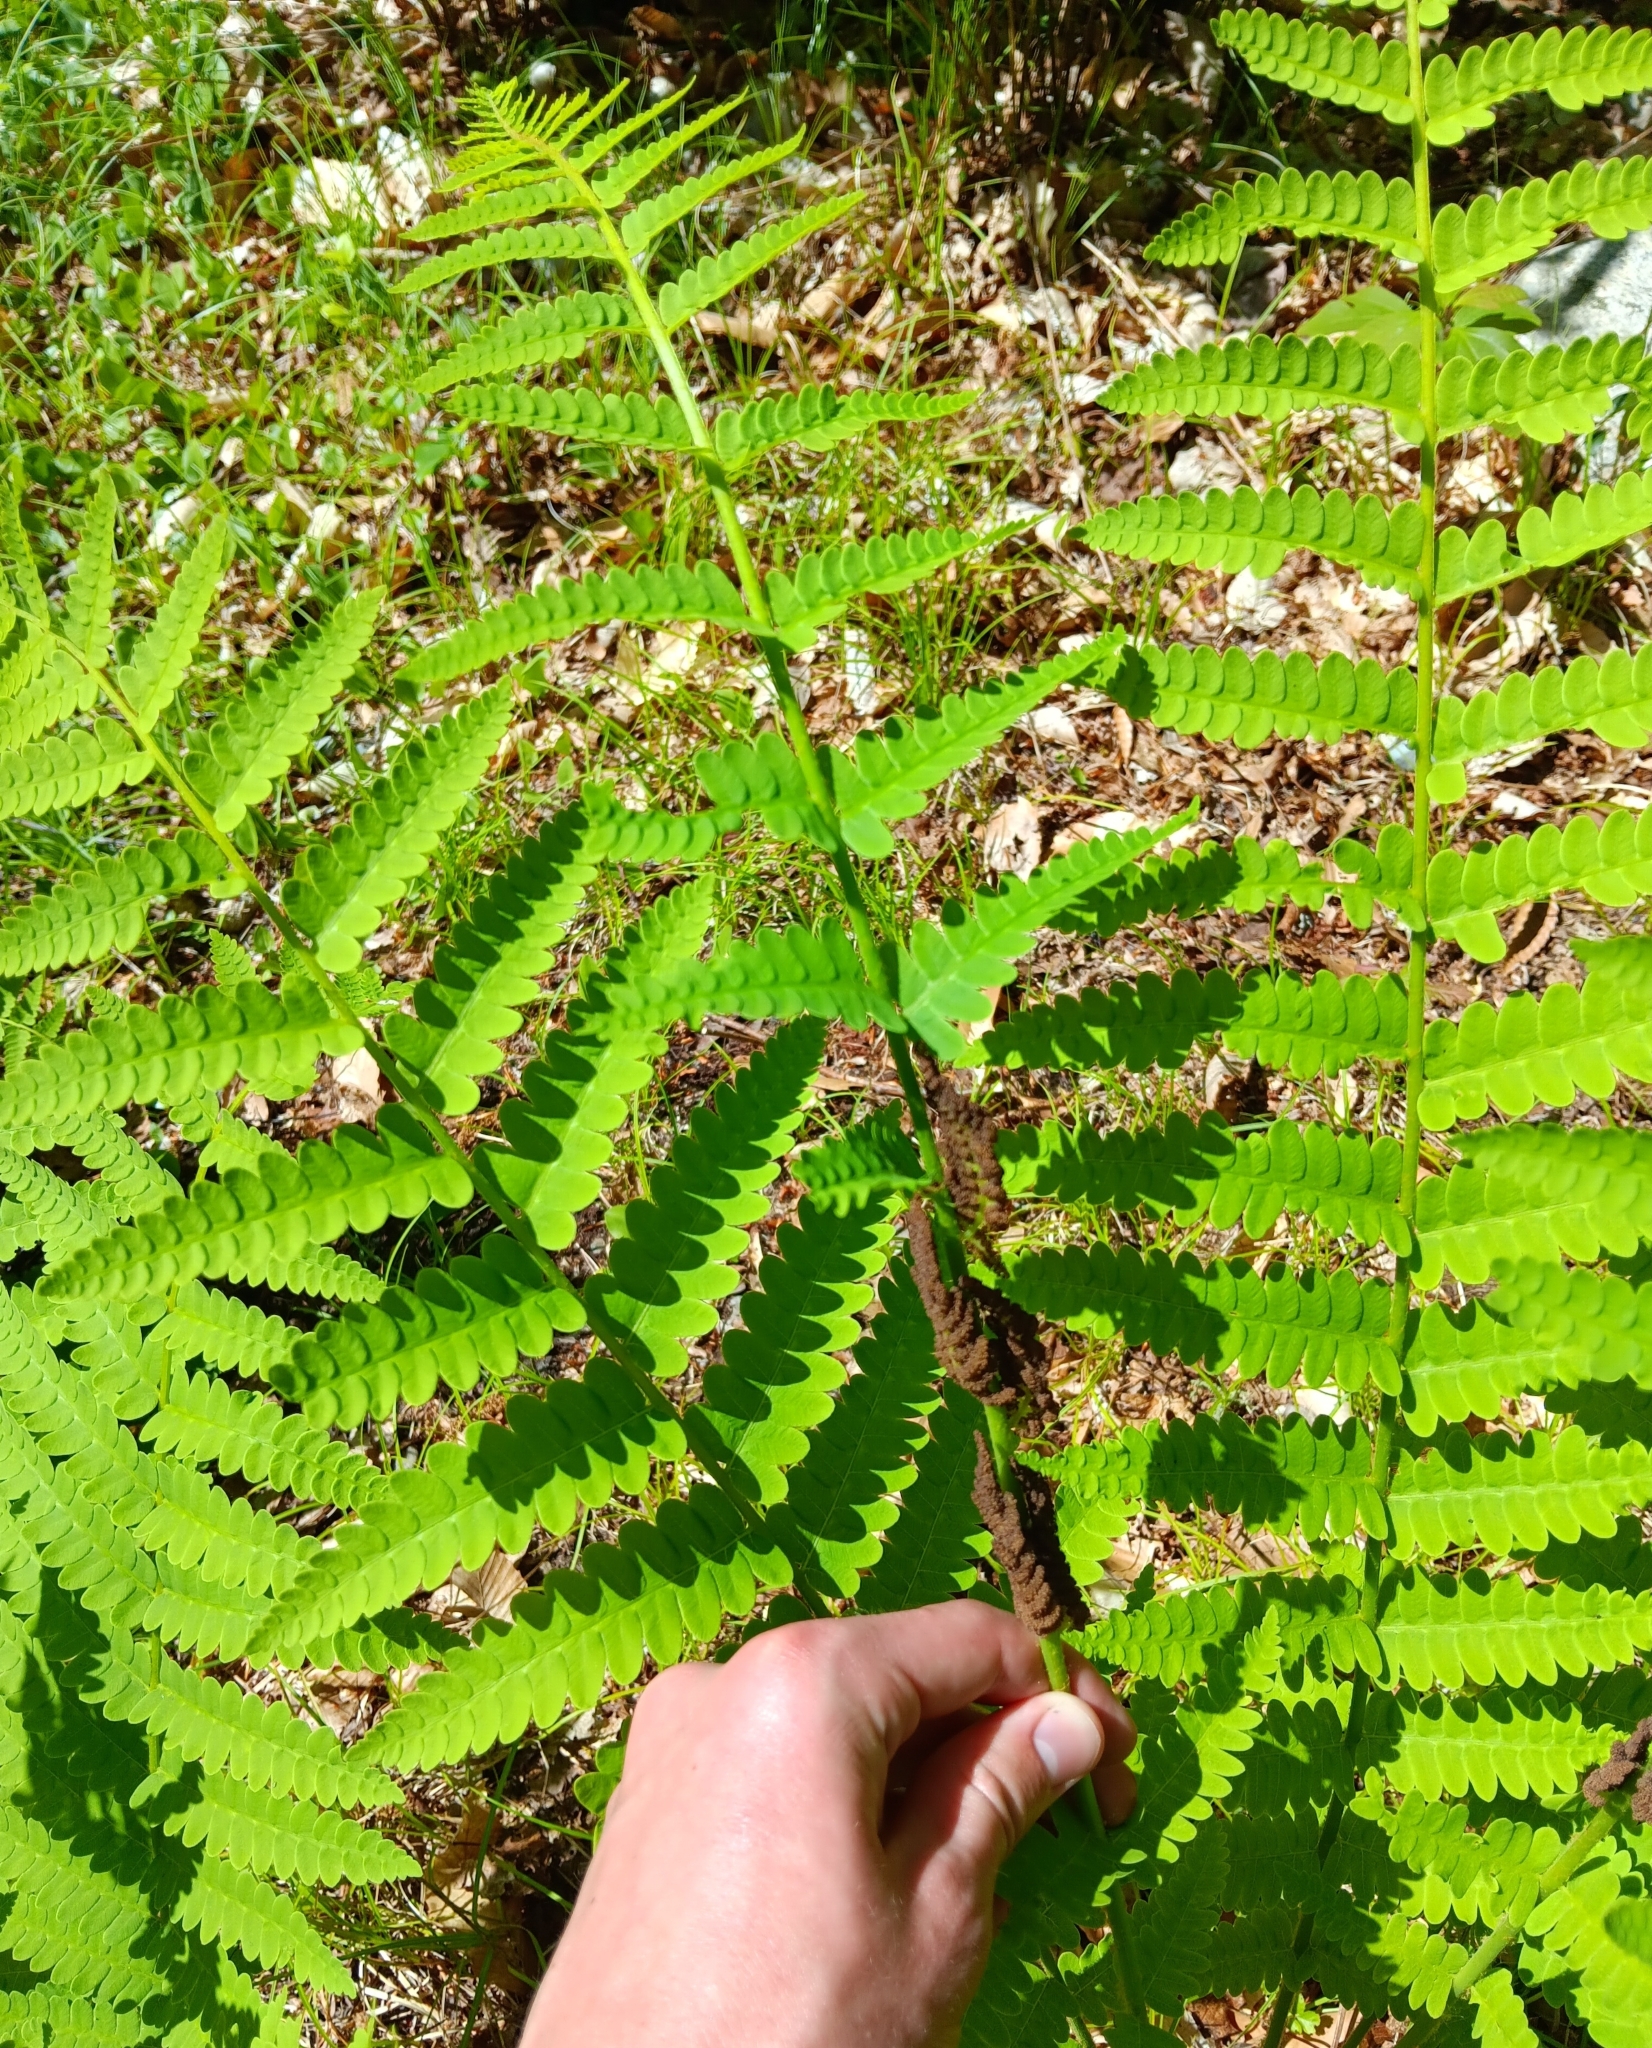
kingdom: Plantae
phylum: Tracheophyta
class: Polypodiopsida
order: Osmundales
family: Osmundaceae
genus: Claytosmunda
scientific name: Claytosmunda claytoniana
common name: Clayton's fern
